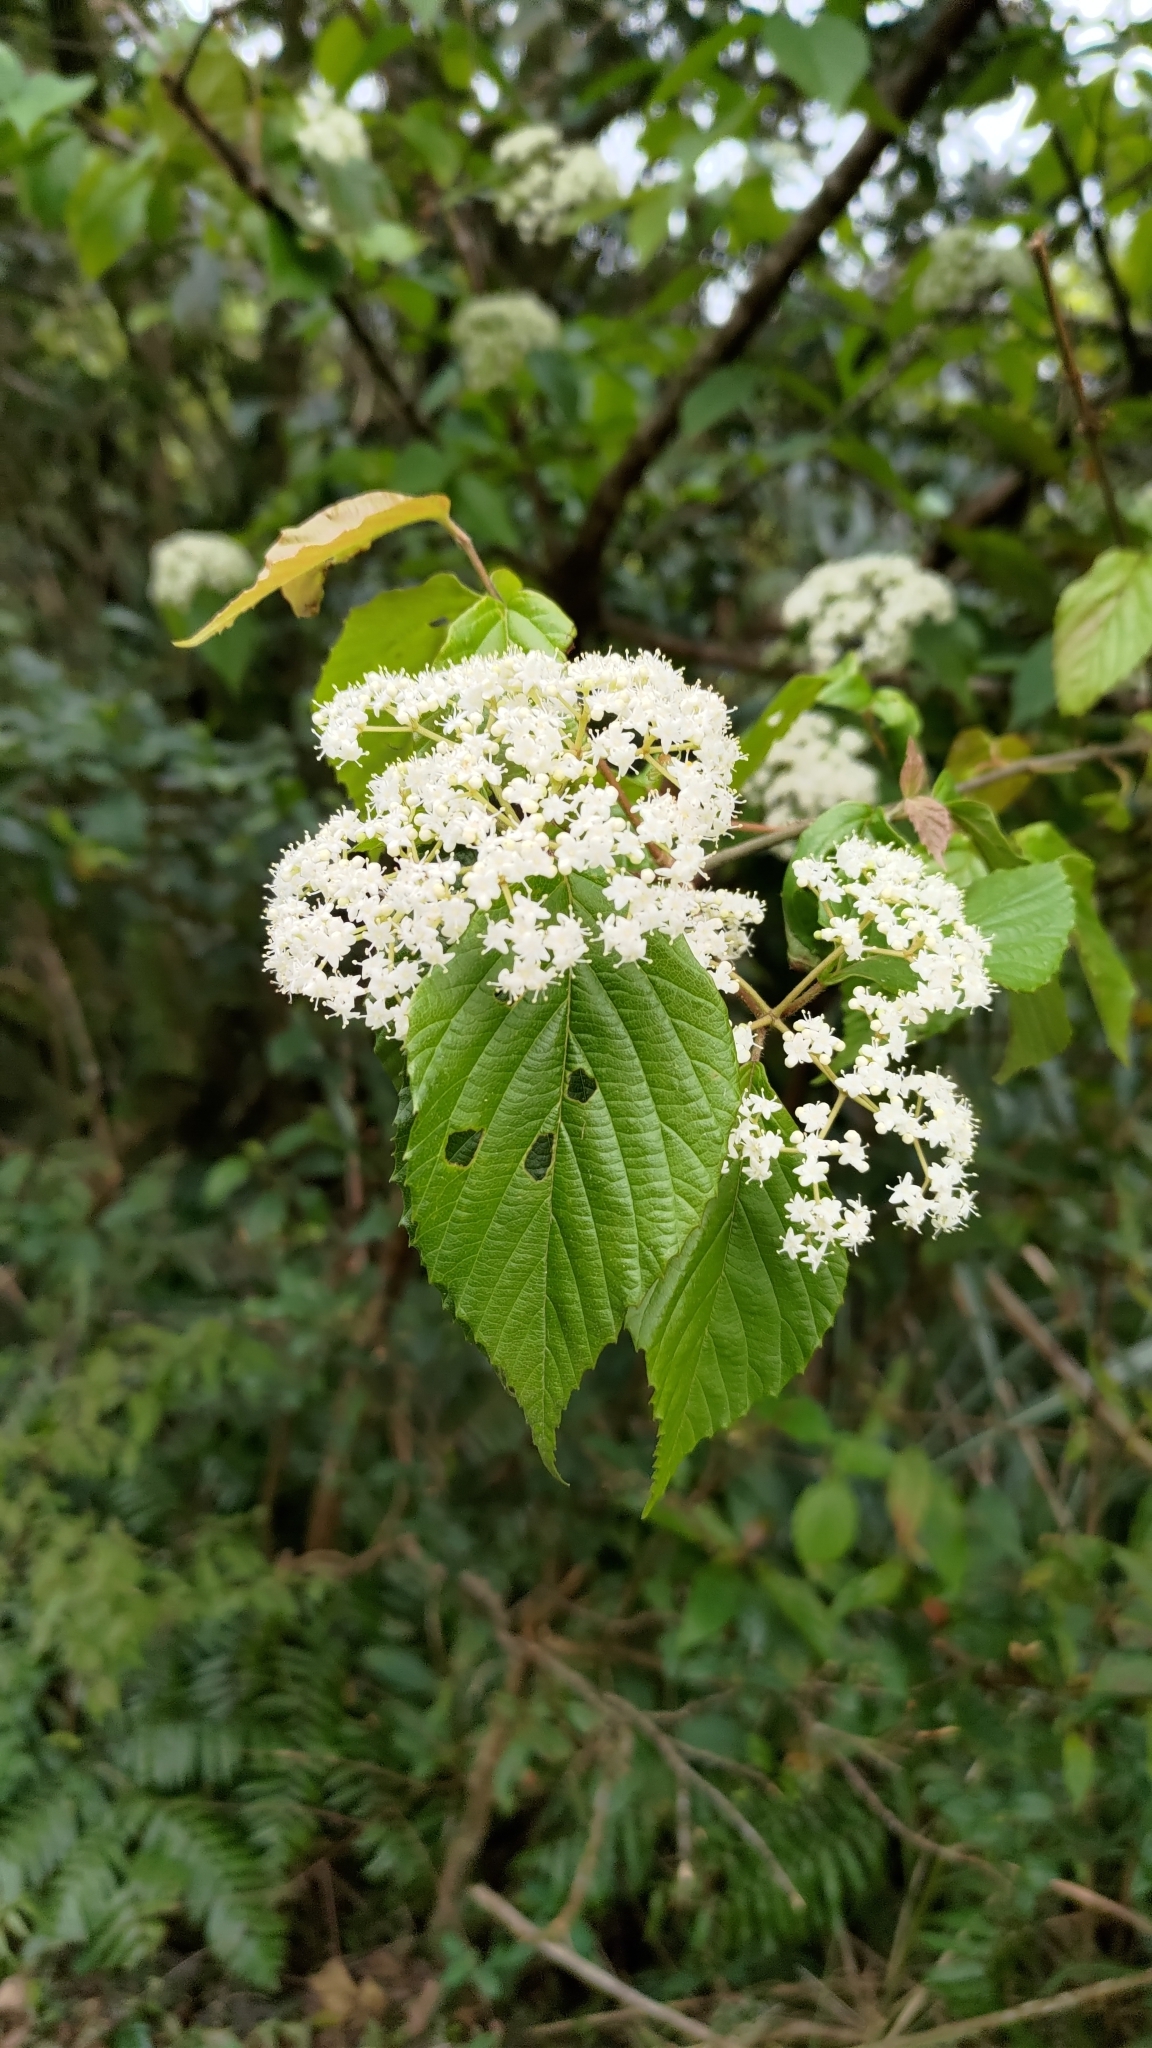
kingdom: Plantae
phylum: Tracheophyta
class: Magnoliopsida
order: Dipsacales
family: Viburnaceae
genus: Viburnum
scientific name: Viburnum luzonicum
